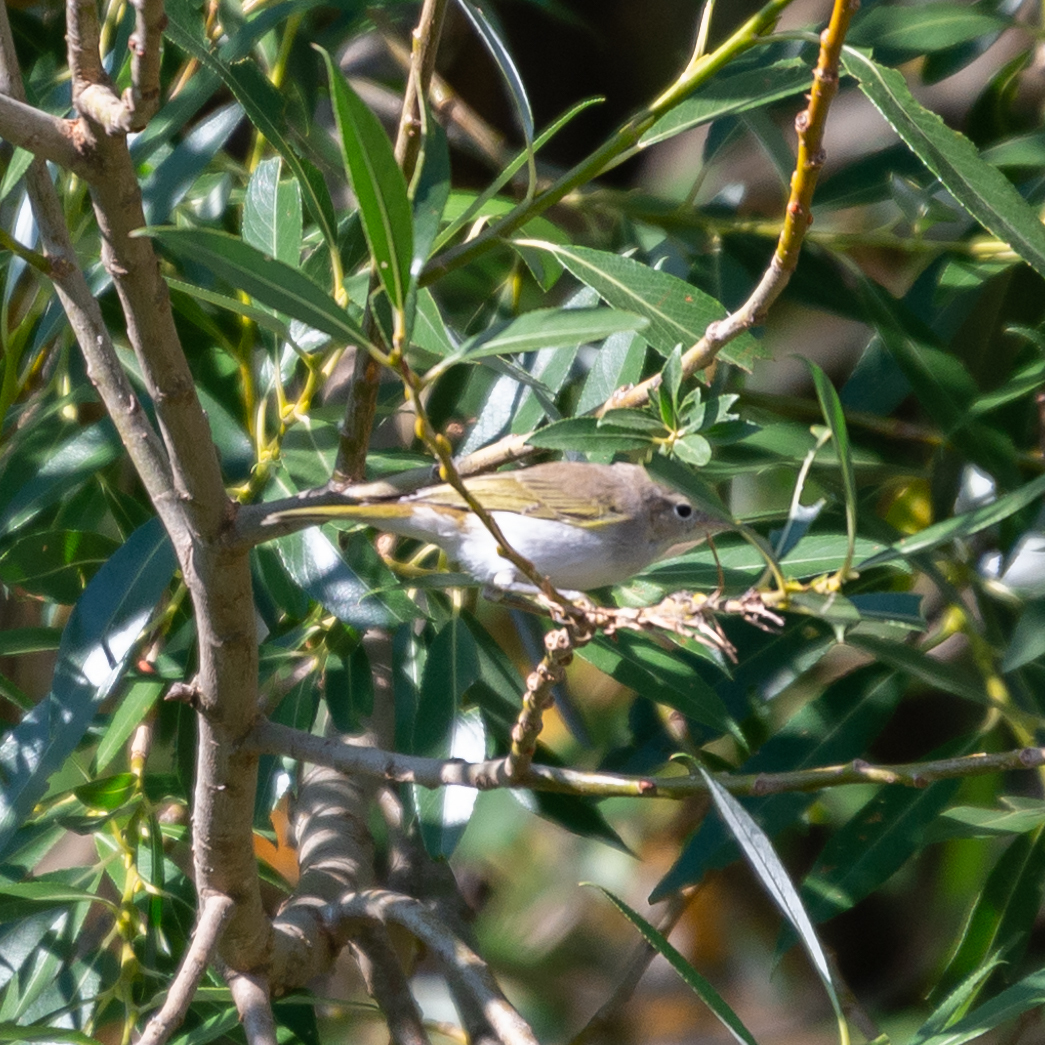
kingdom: Animalia
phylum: Chordata
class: Aves
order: Passeriformes
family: Phylloscopidae
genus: Phylloscopus
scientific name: Phylloscopus bonelli
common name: Western bonelli's warbler
